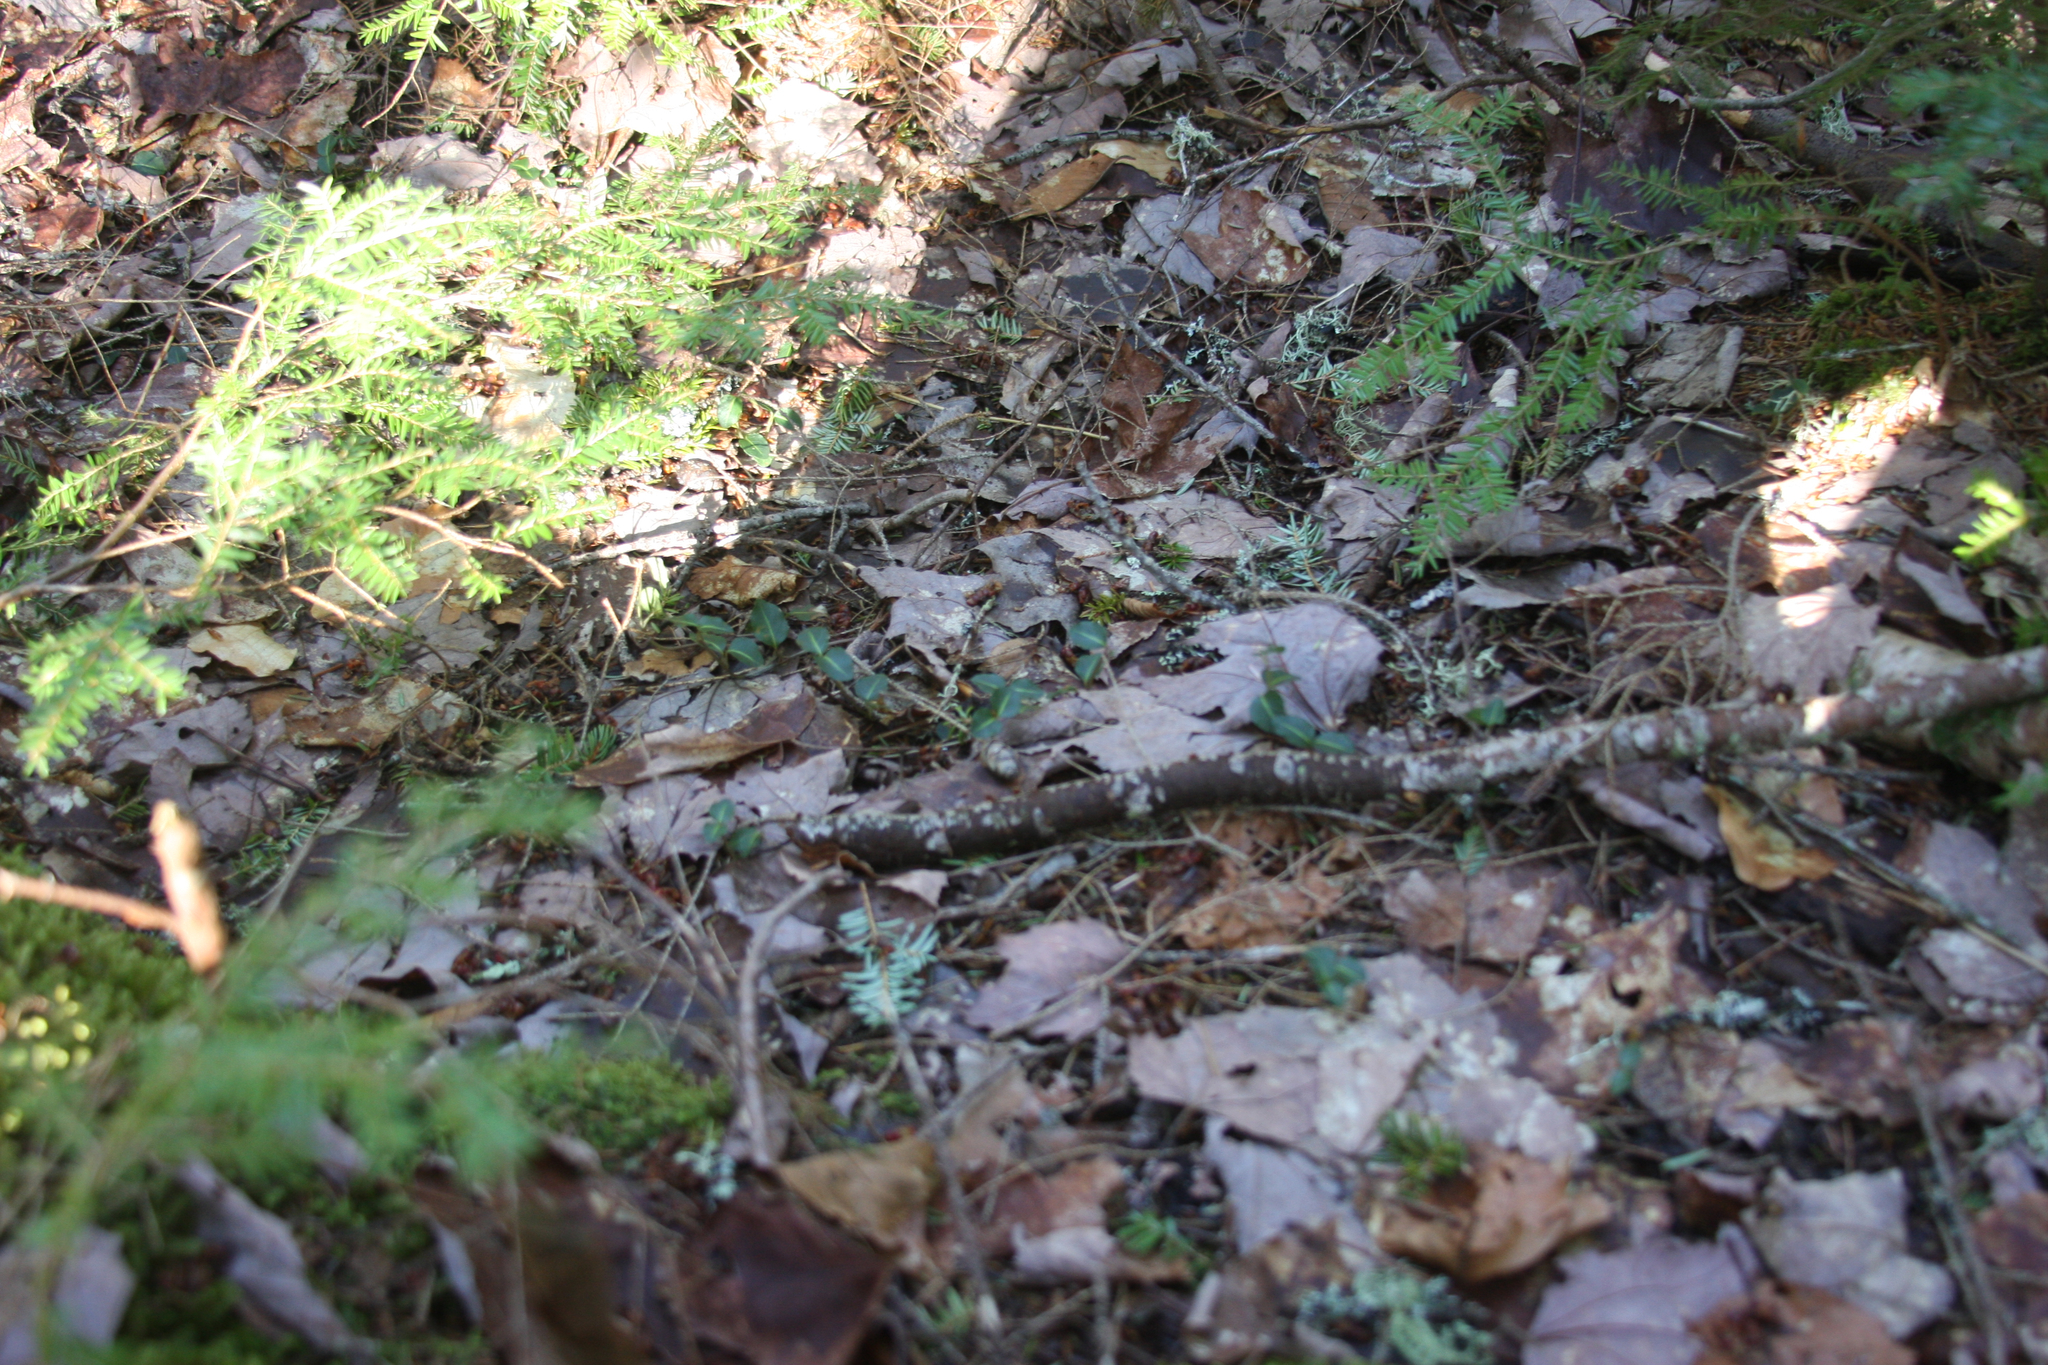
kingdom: Plantae
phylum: Tracheophyta
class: Magnoliopsida
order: Gentianales
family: Rubiaceae
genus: Mitchella
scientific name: Mitchella repens
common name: Partridge-berry
